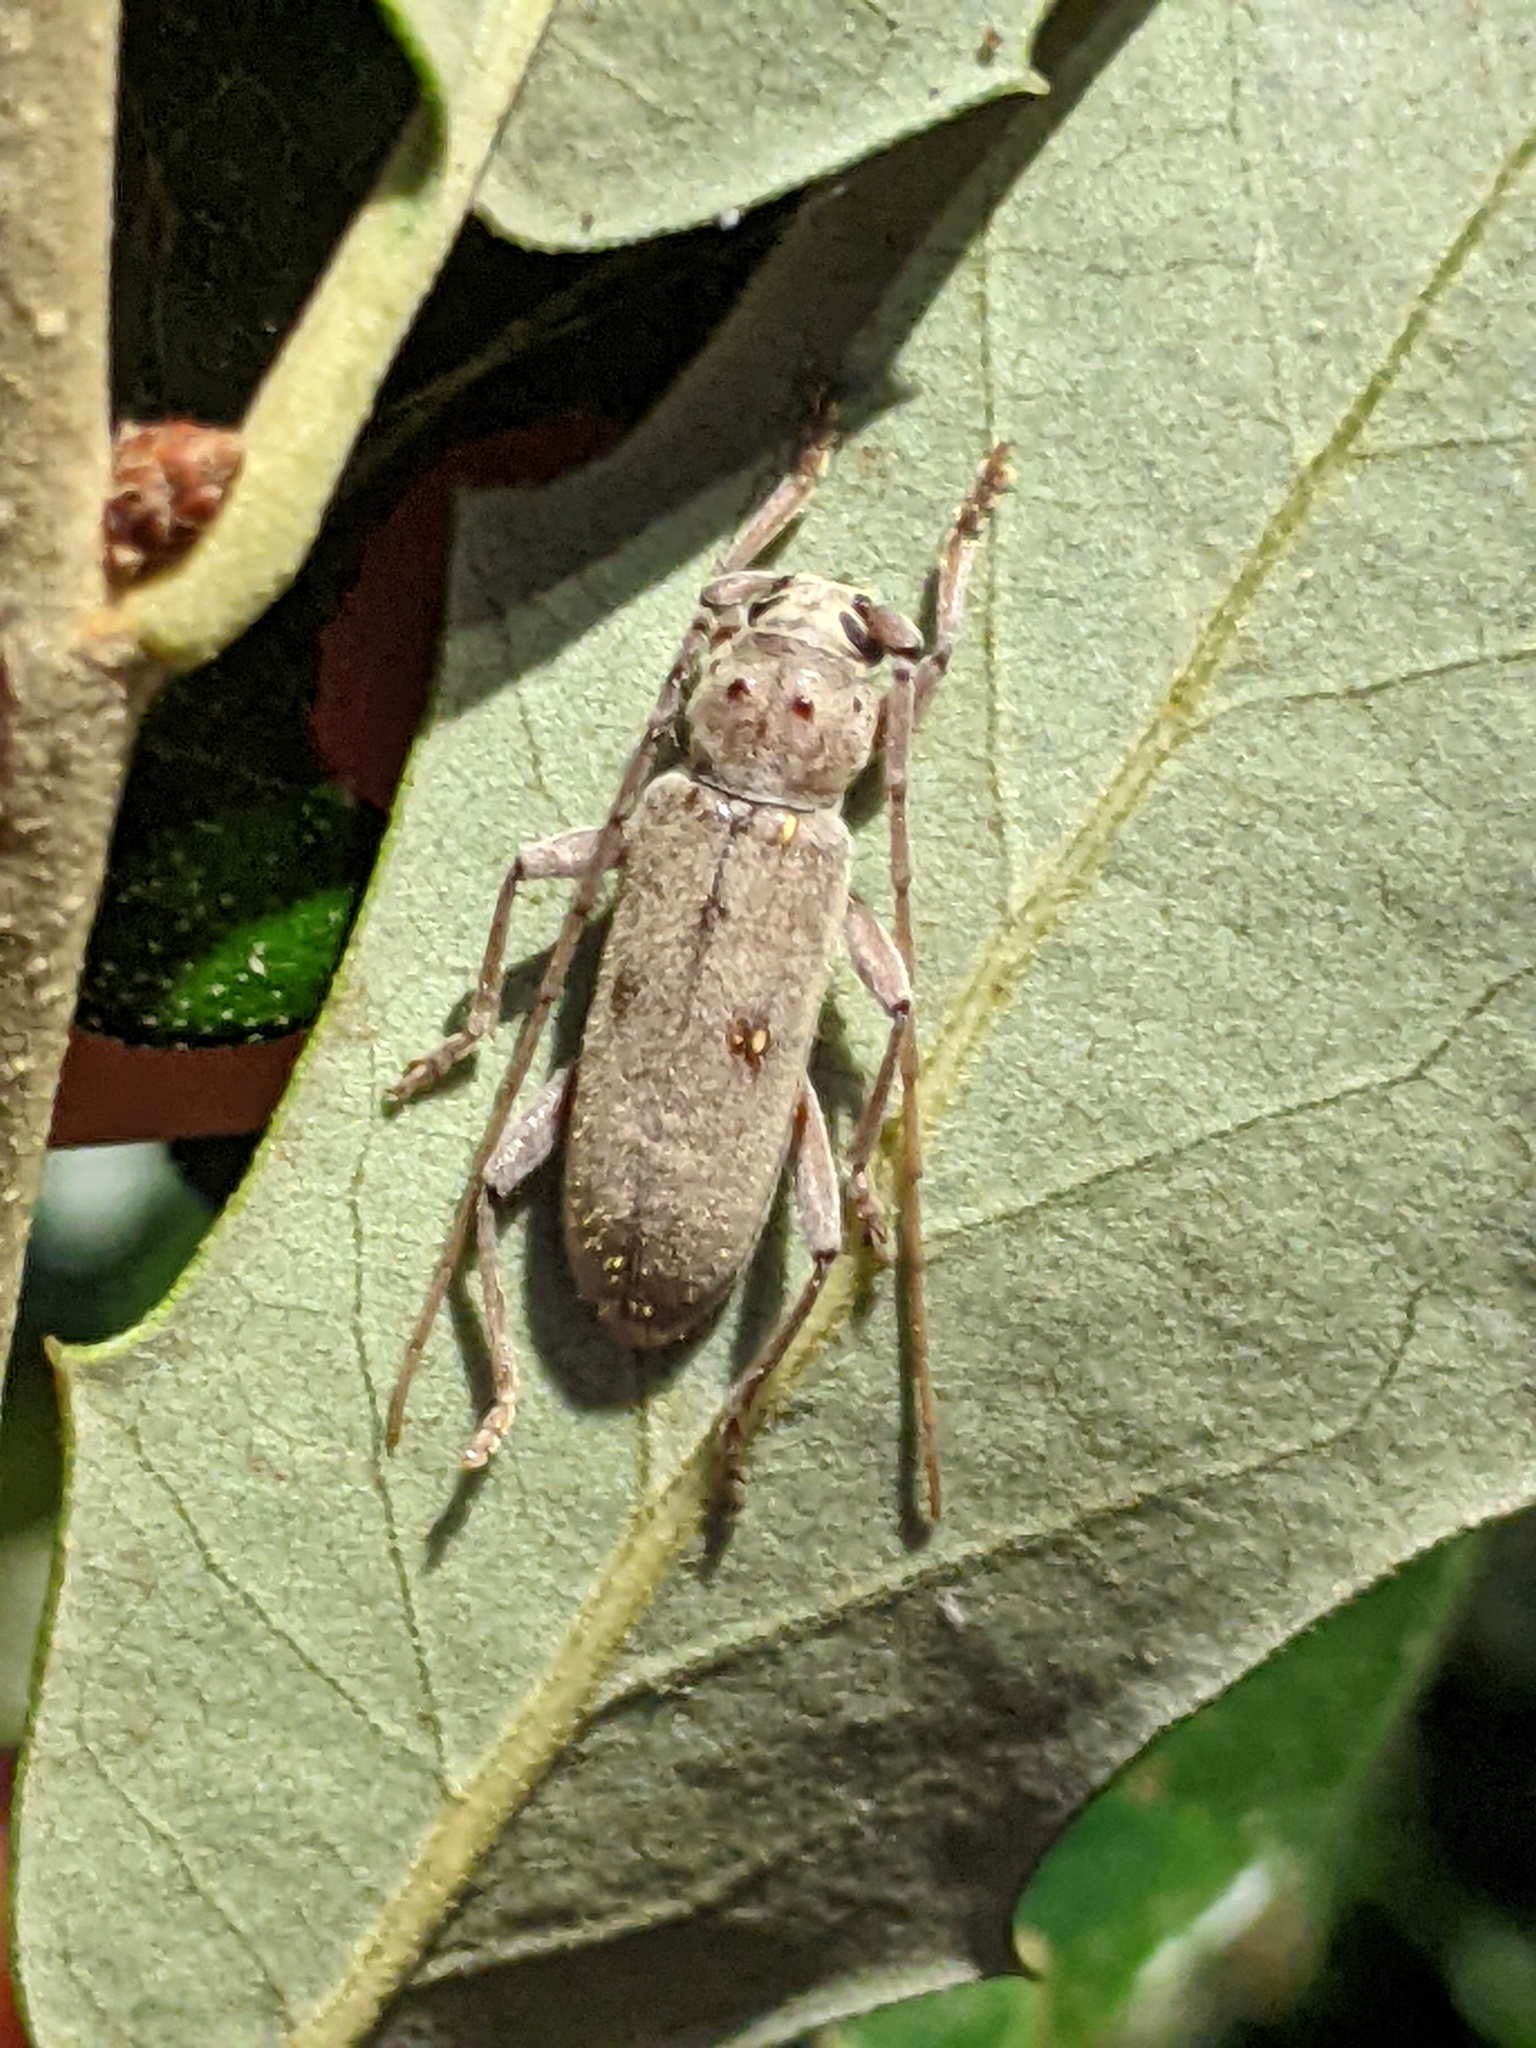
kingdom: Animalia
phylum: Arthropoda
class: Insecta
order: Coleoptera
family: Cerambycidae
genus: Eburia
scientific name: Eburia mutica
